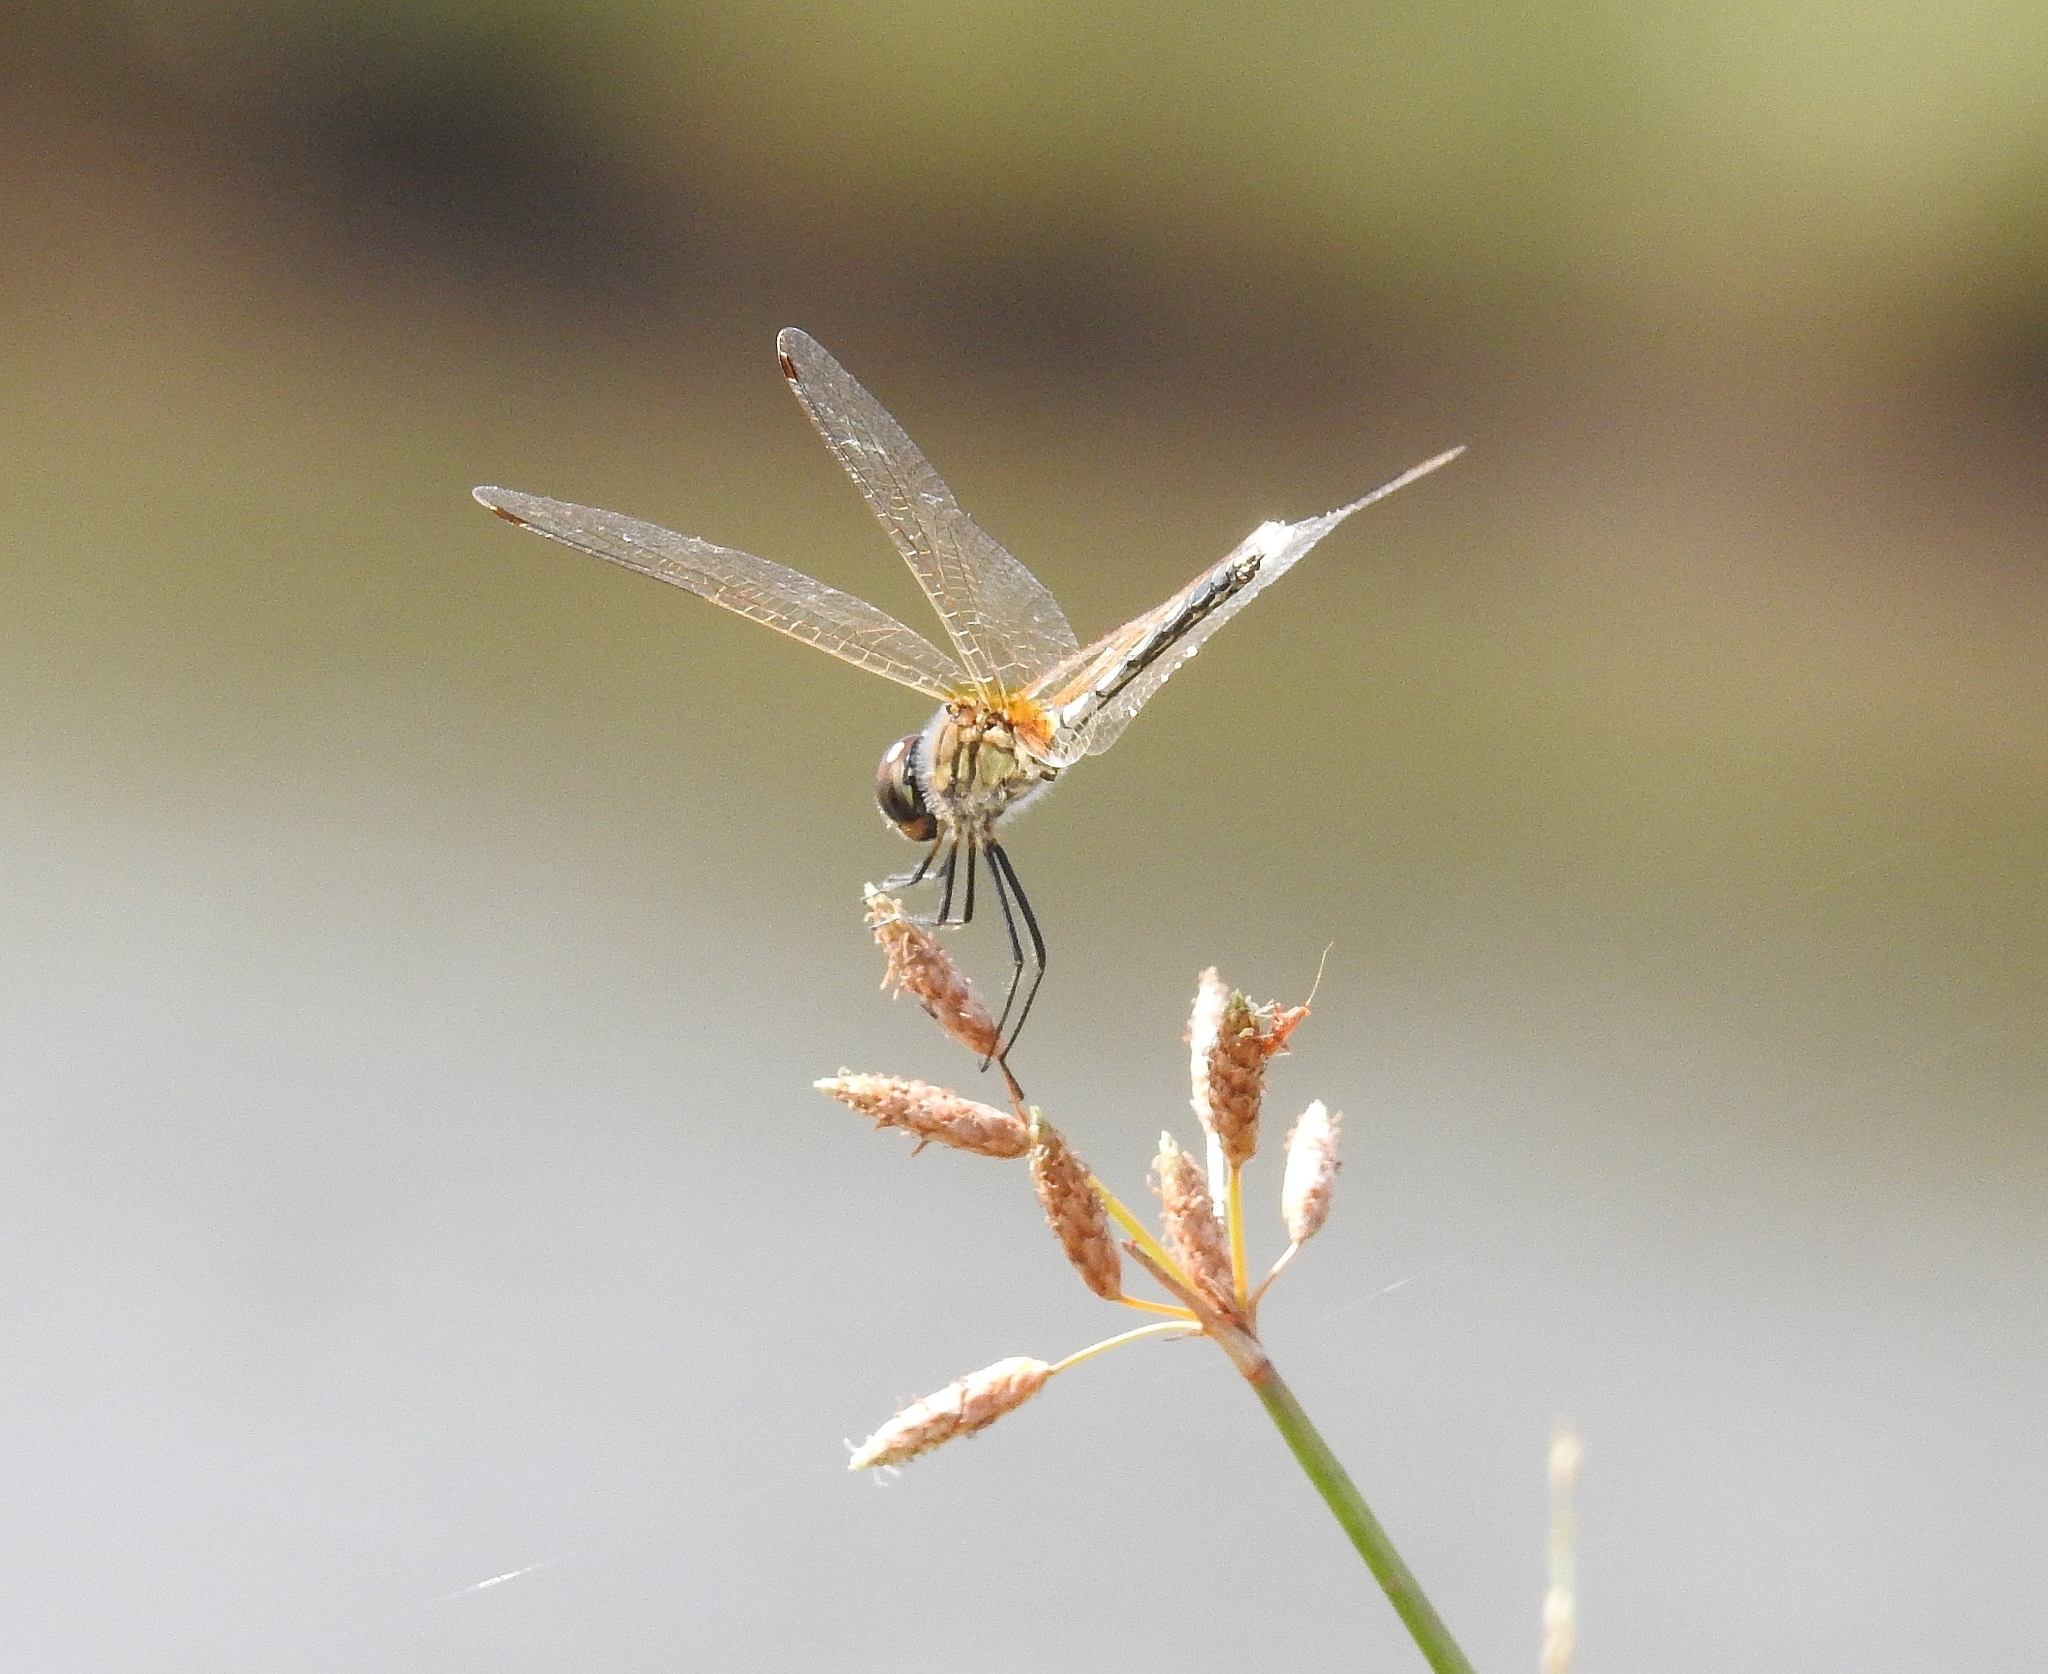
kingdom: Animalia
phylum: Arthropoda
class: Insecta
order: Odonata
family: Libellulidae
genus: Trithemis
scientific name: Trithemis pallidinervis
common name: Dancing dropwing
